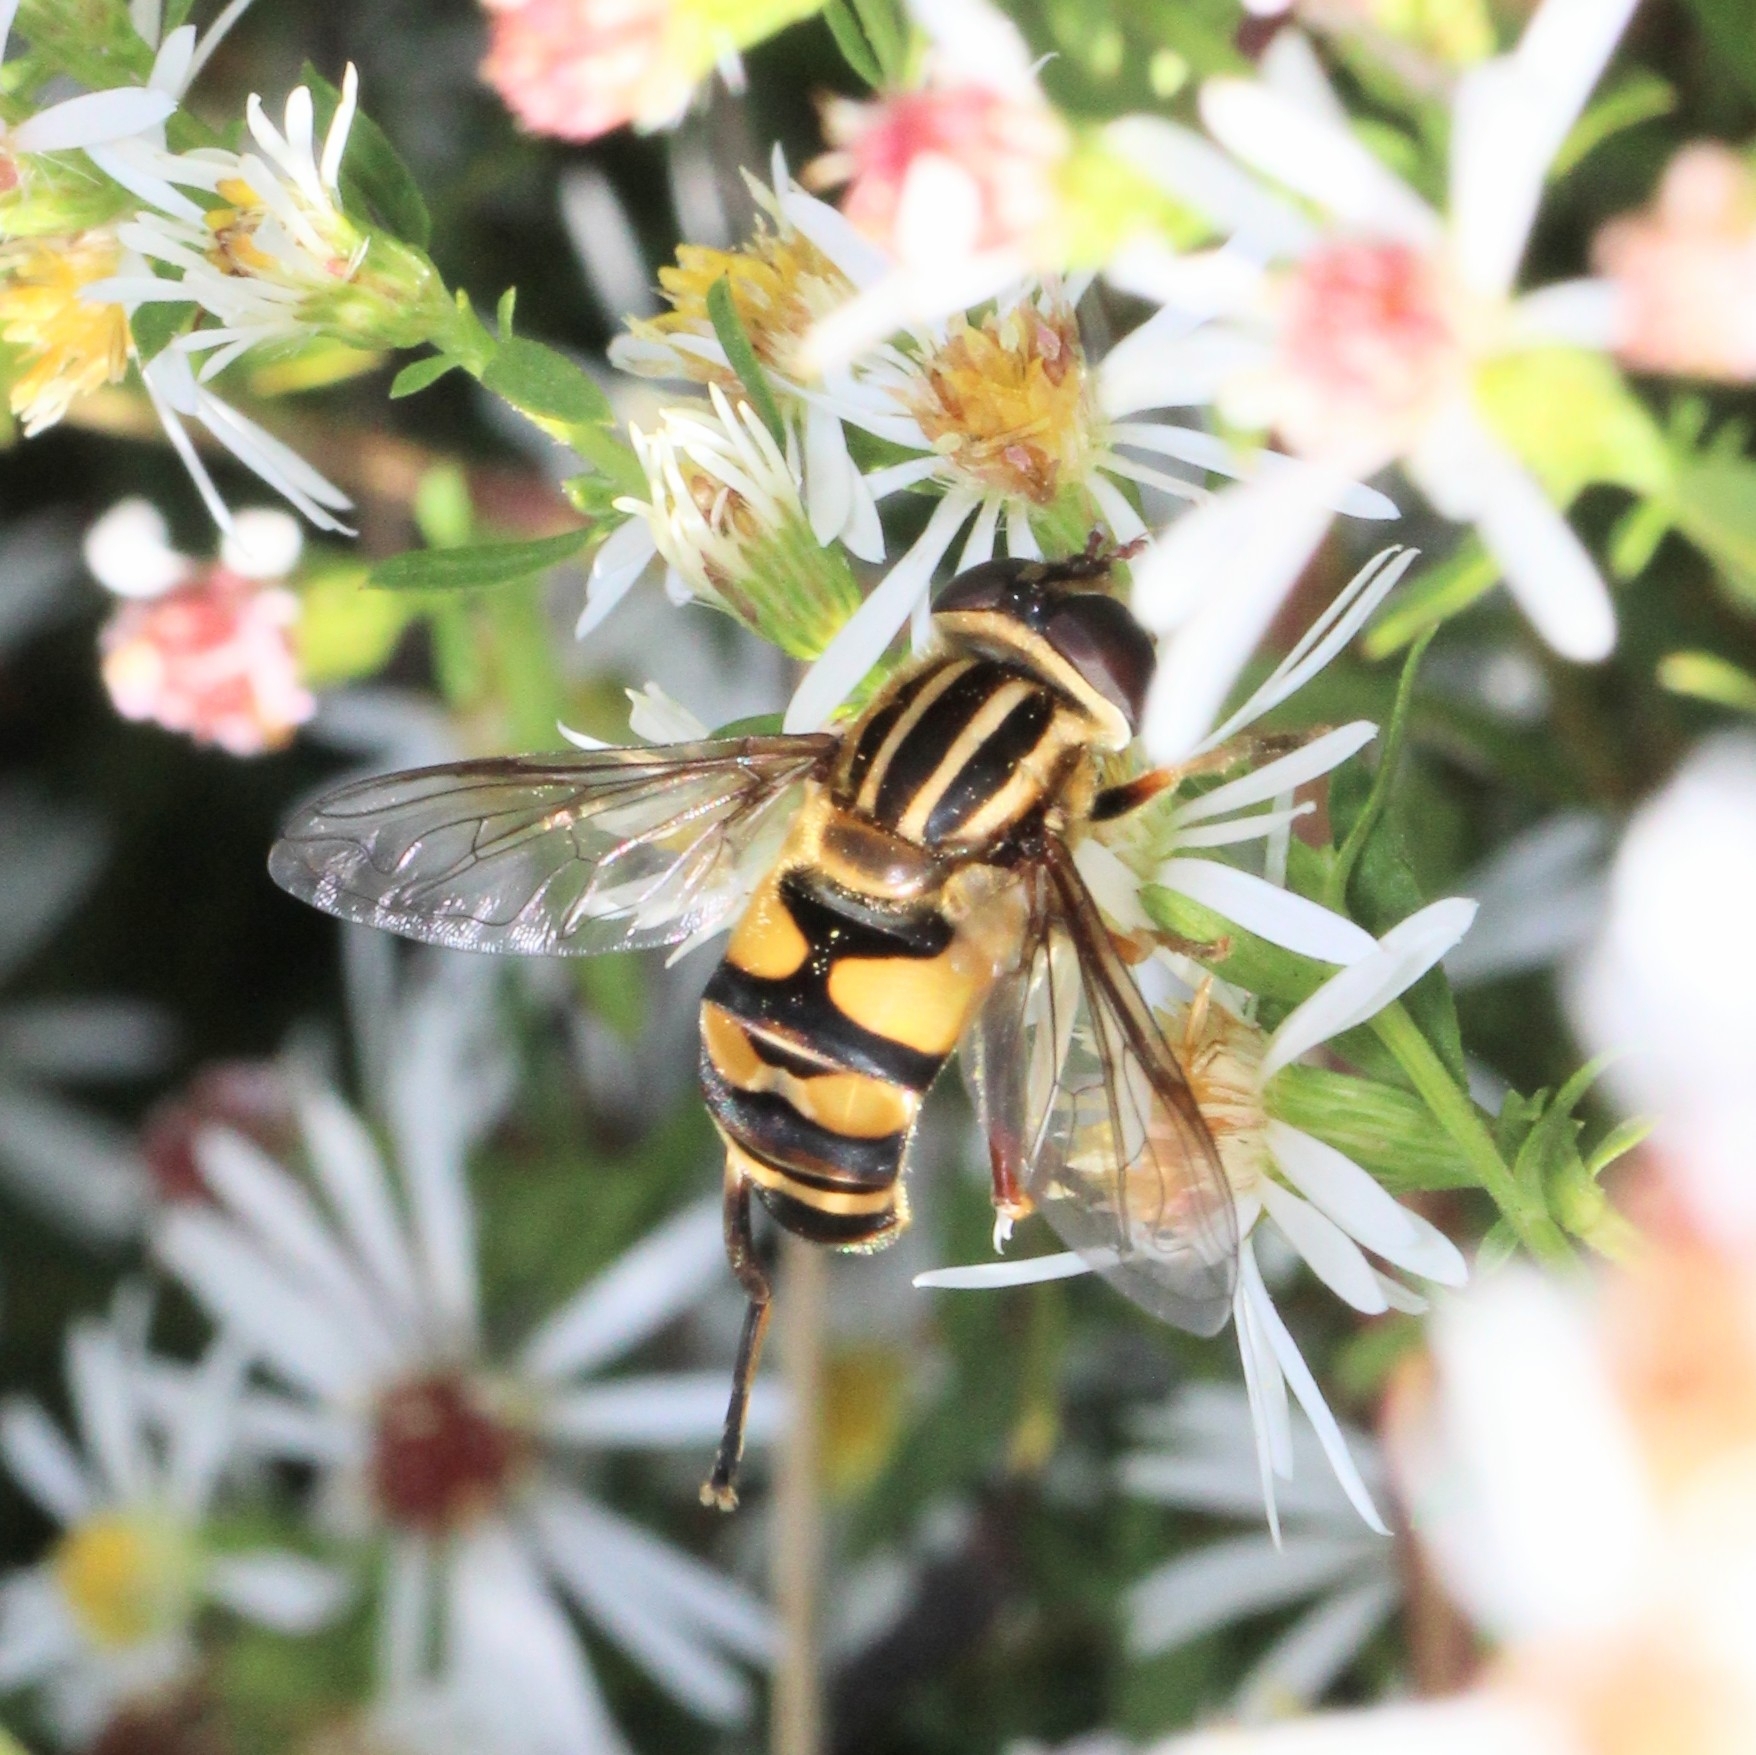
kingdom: Animalia
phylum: Arthropoda
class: Insecta
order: Diptera
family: Syrphidae
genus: Helophilus
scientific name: Helophilus fasciatus
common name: Narrow-headed marsh fly
